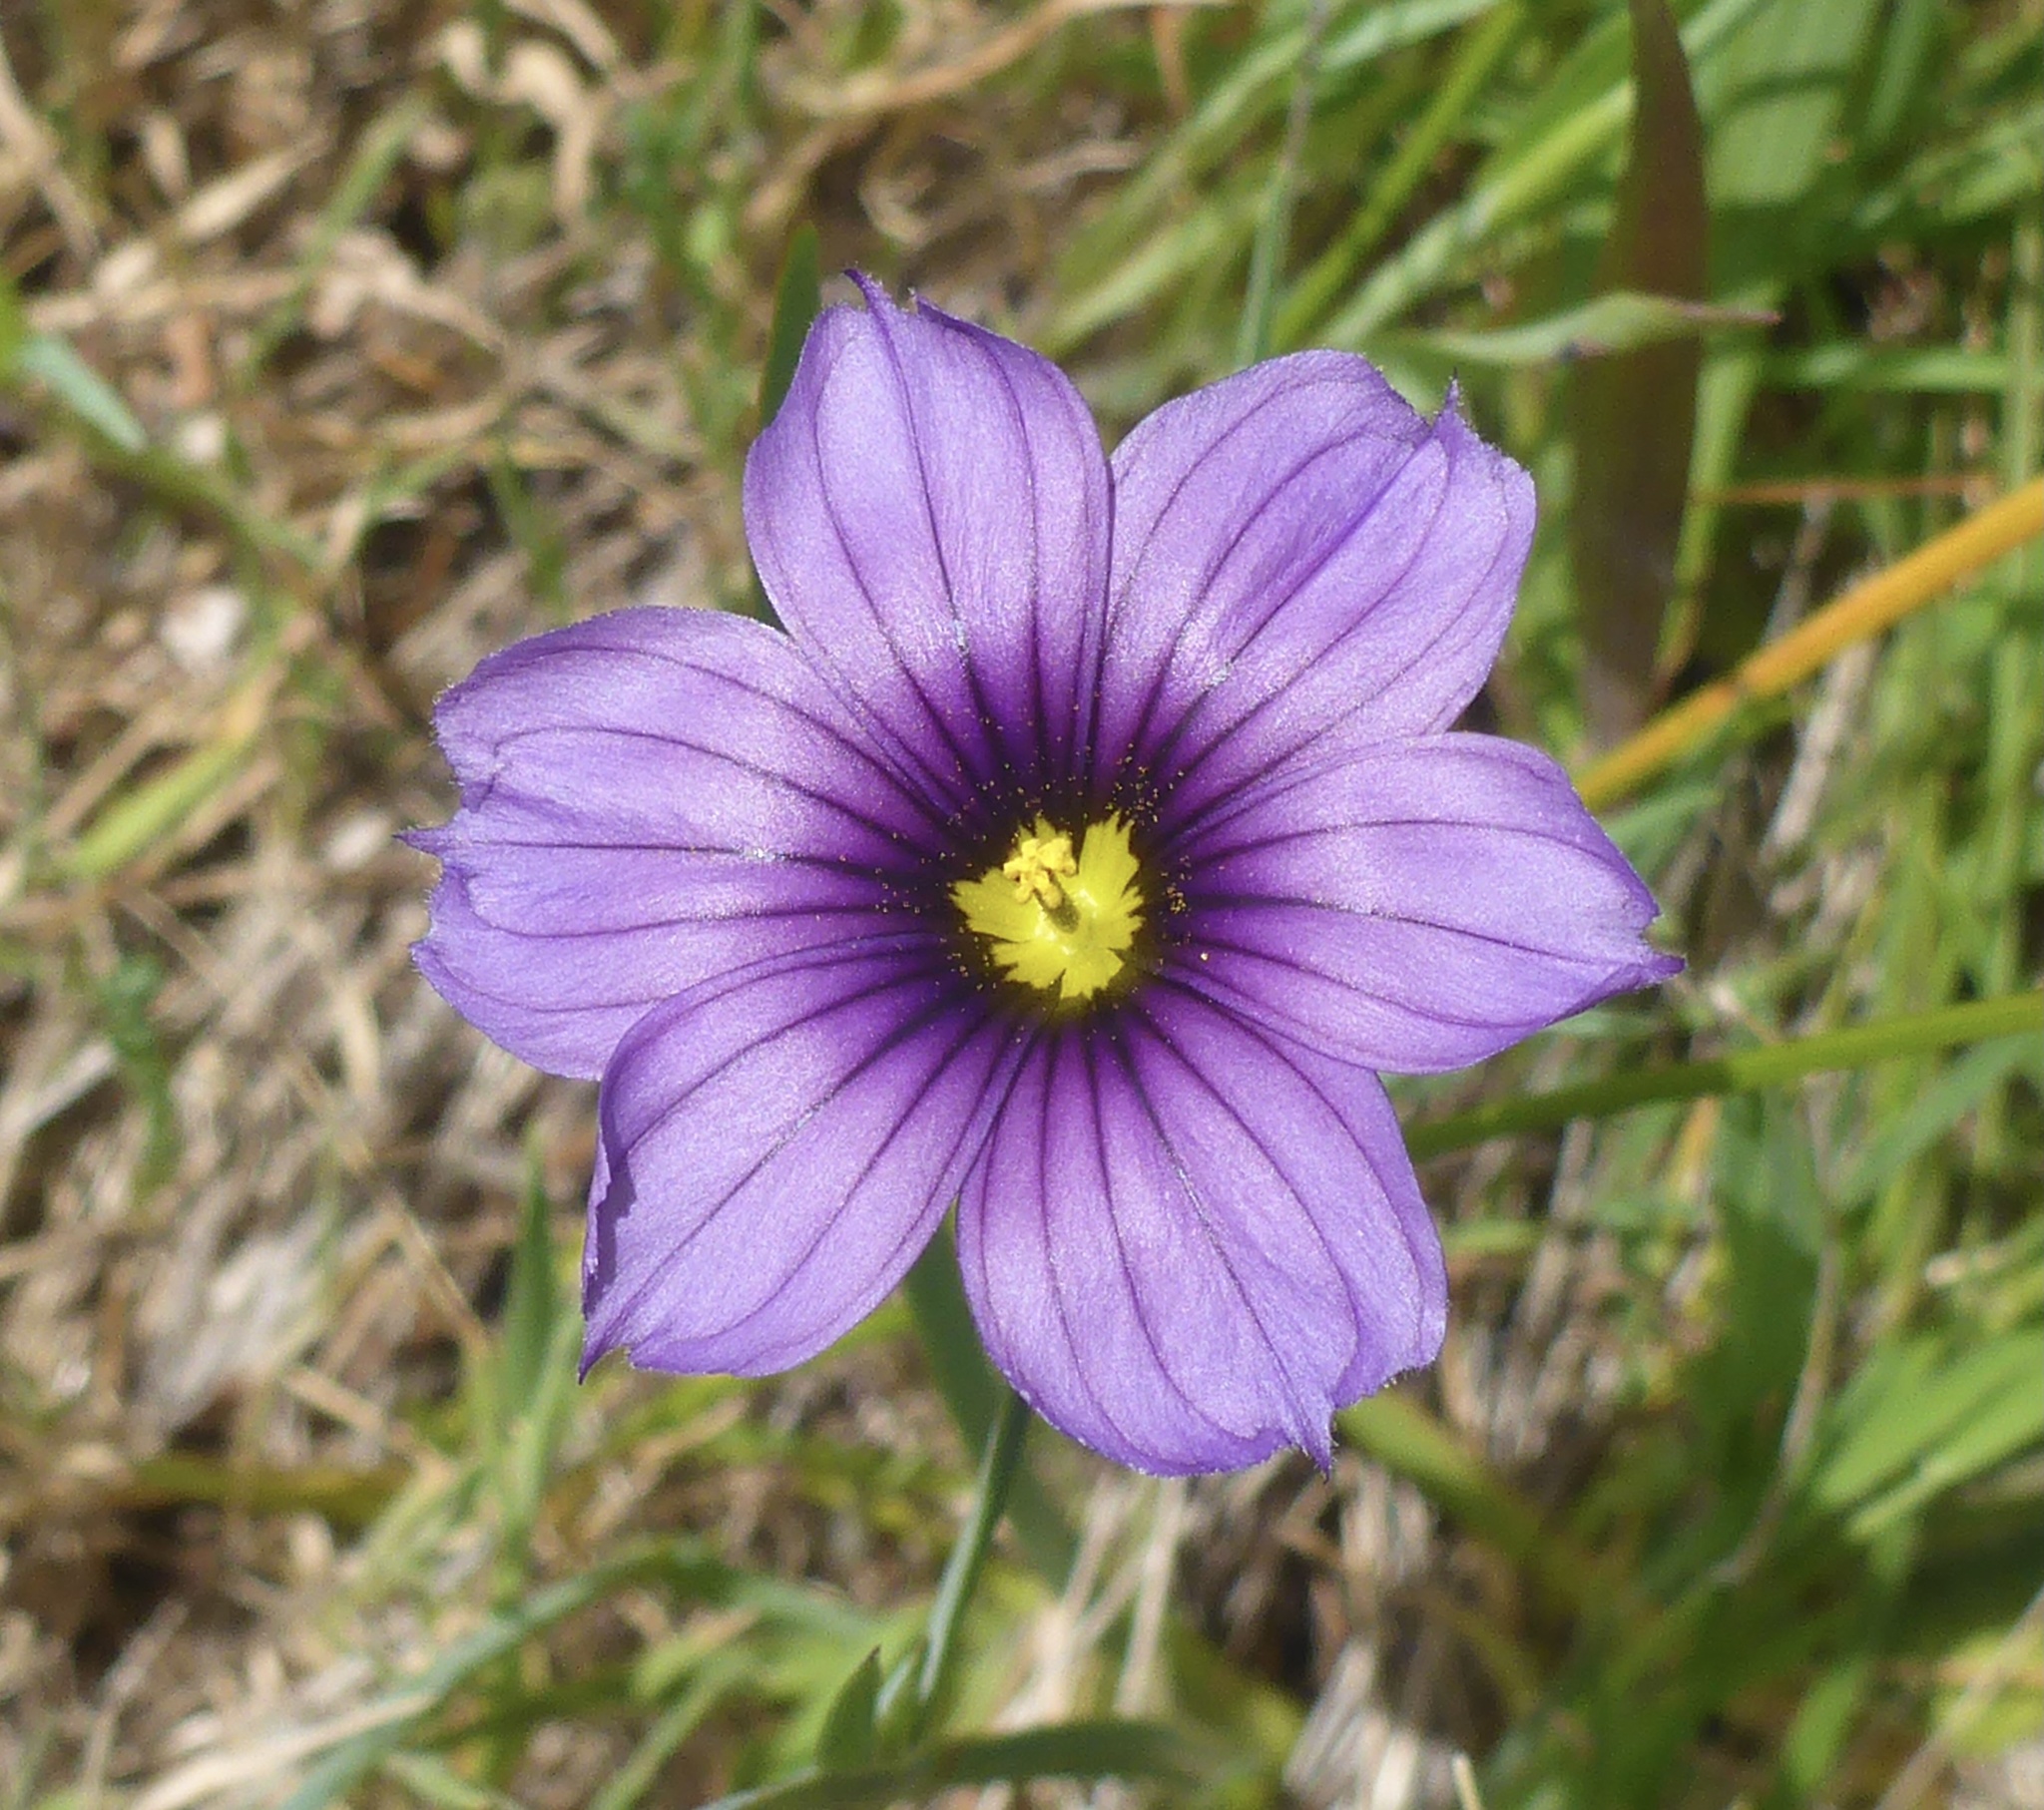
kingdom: Plantae
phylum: Tracheophyta
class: Liliopsida
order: Asparagales
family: Iridaceae
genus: Sisyrinchium
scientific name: Sisyrinchium bellum
